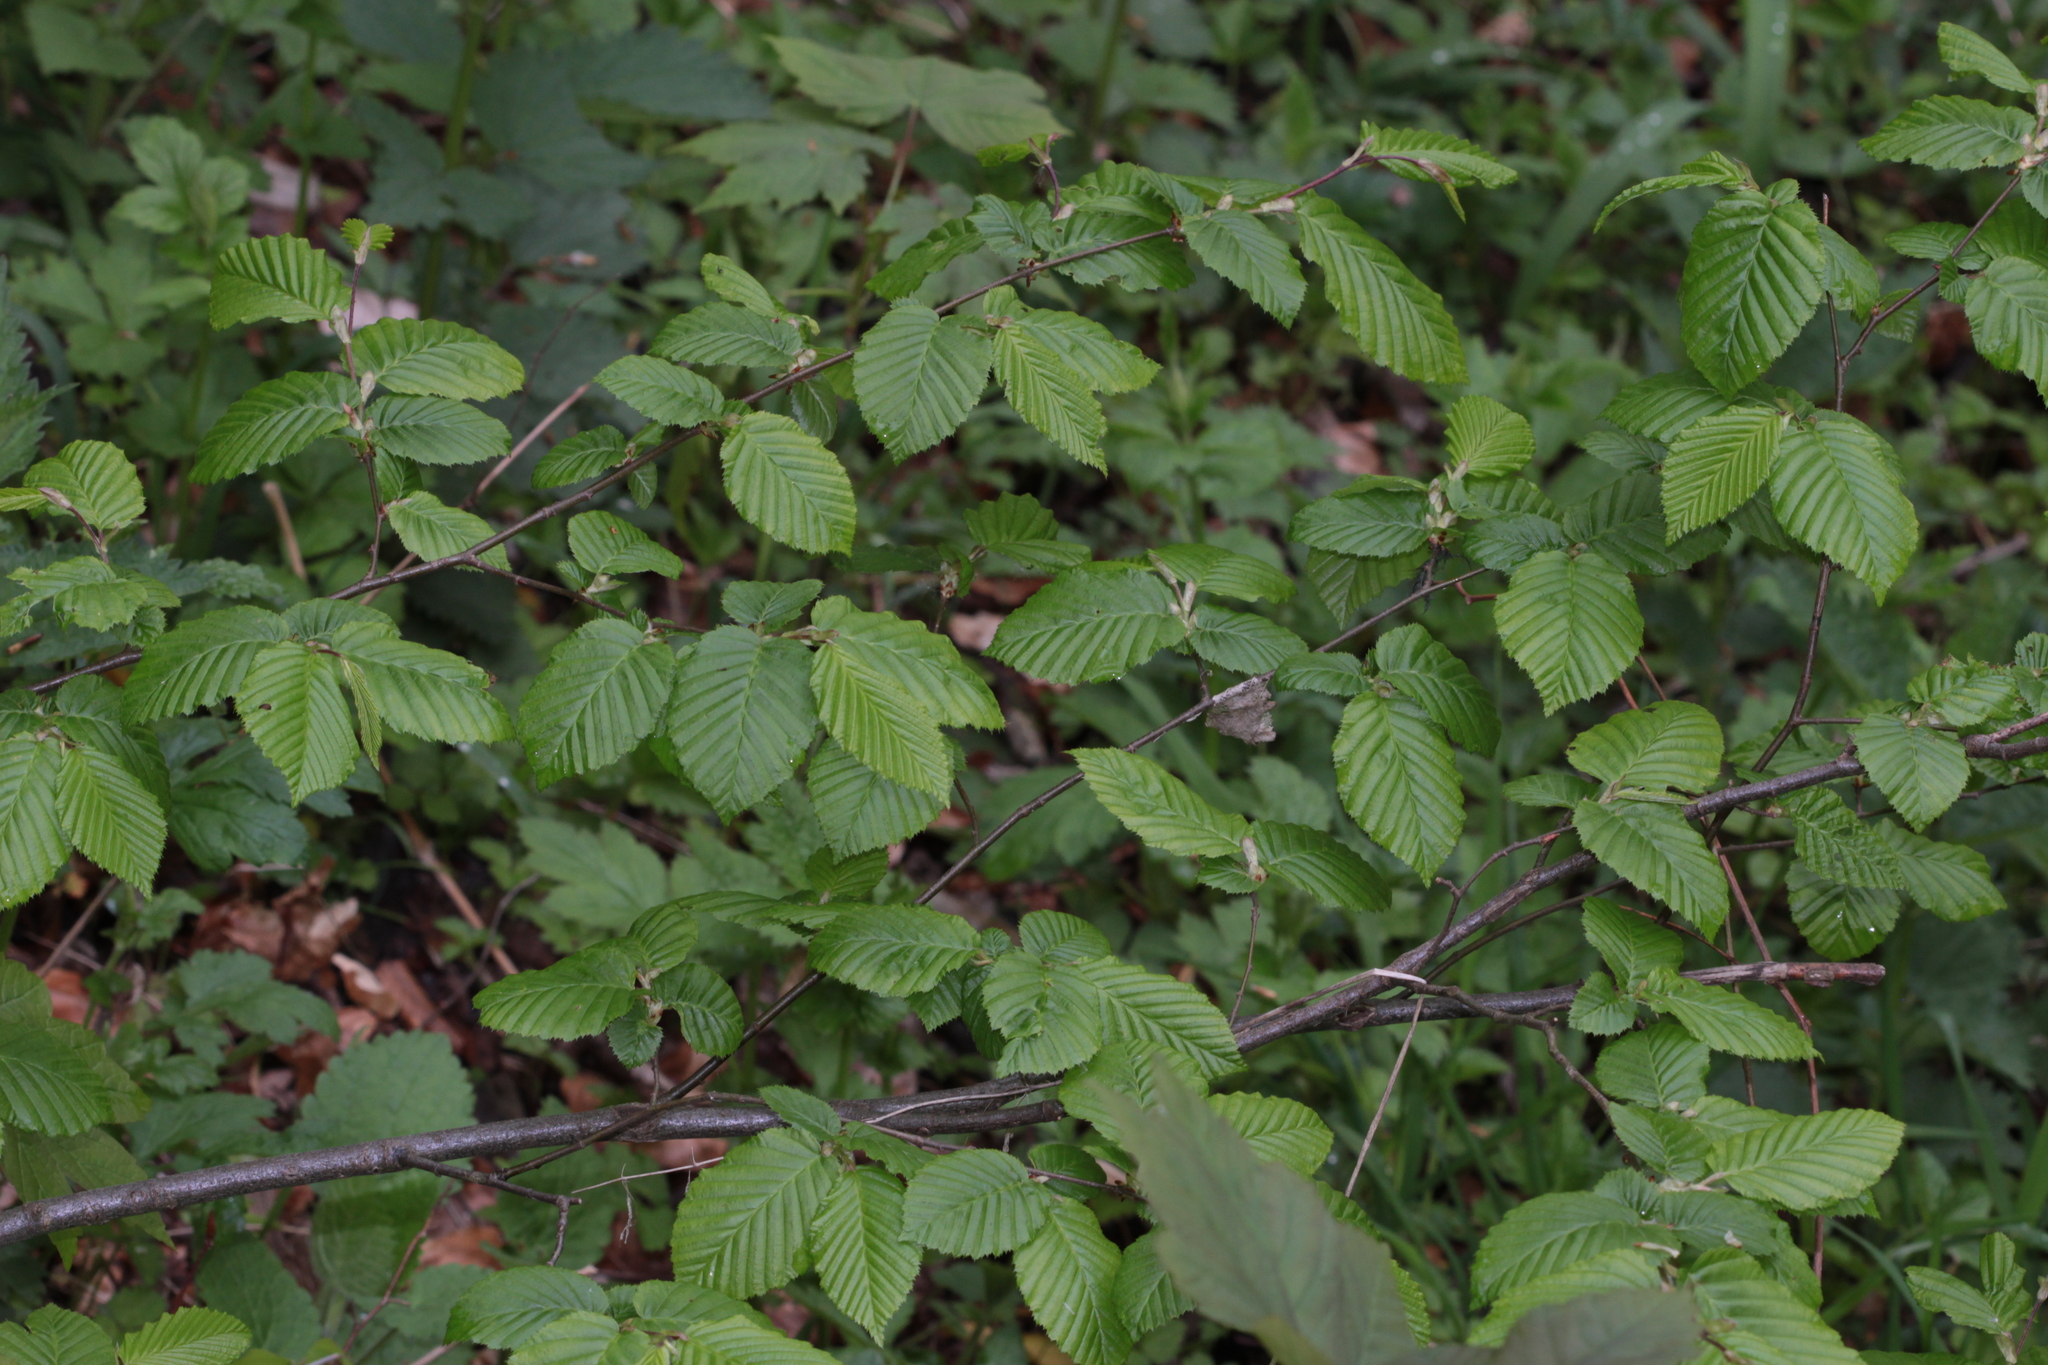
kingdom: Plantae
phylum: Tracheophyta
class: Magnoliopsida
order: Fagales
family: Betulaceae
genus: Carpinus
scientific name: Carpinus betulus
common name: Hornbeam
